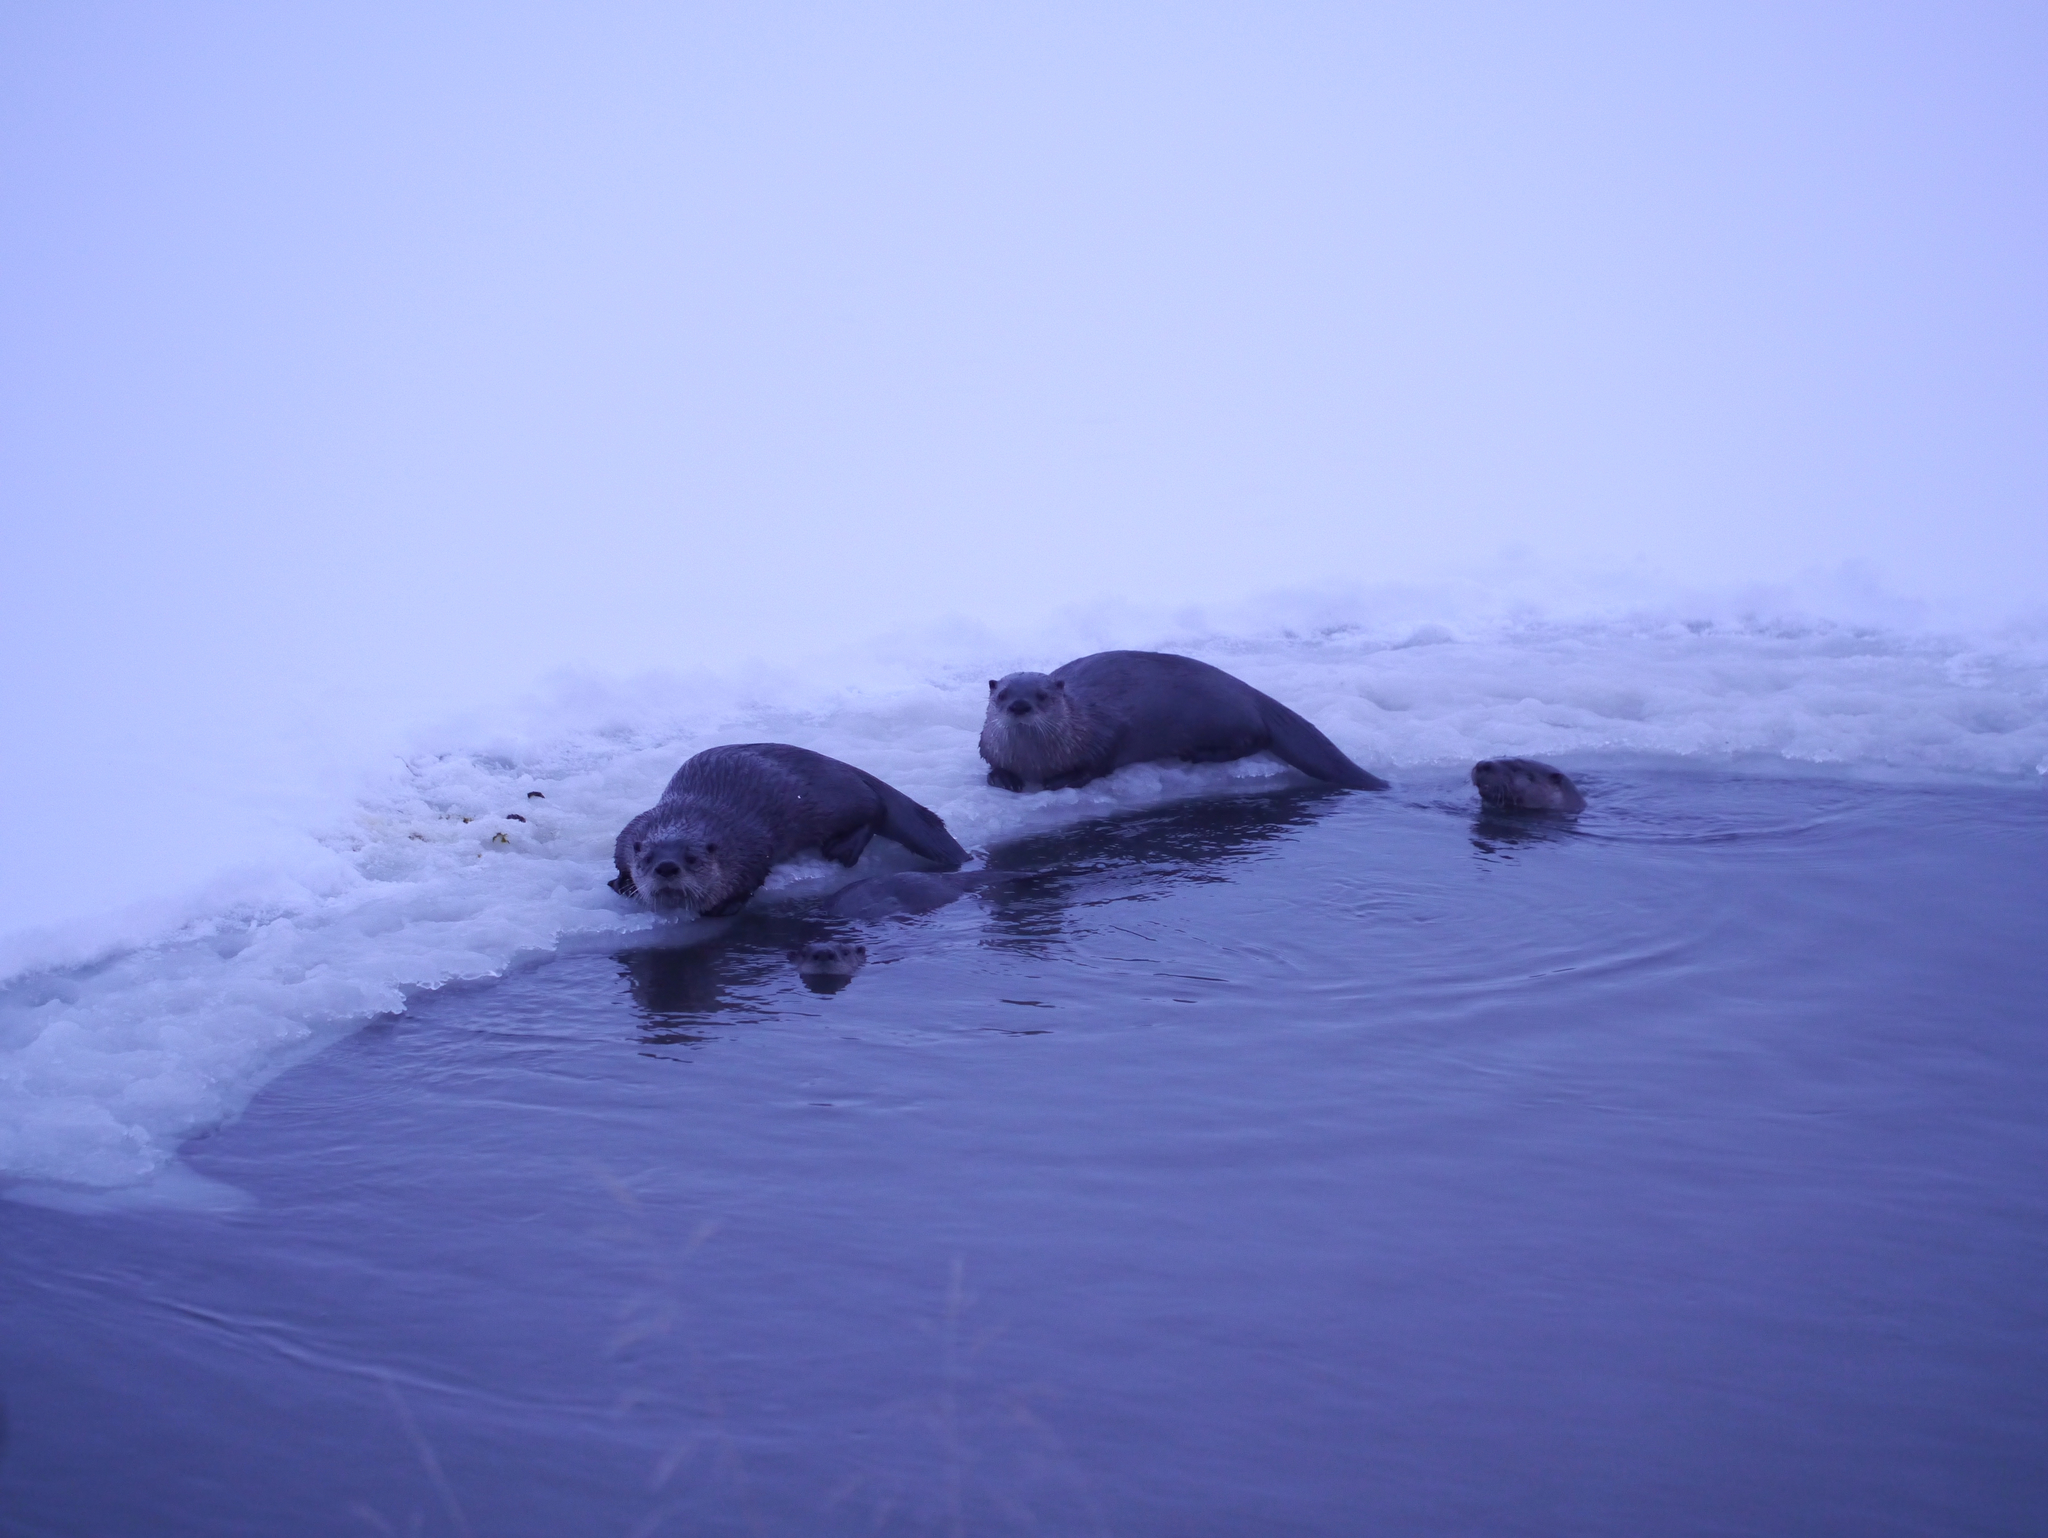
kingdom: Animalia
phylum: Chordata
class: Mammalia
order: Carnivora
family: Mustelidae
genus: Lontra
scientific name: Lontra canadensis
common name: North american river otter
